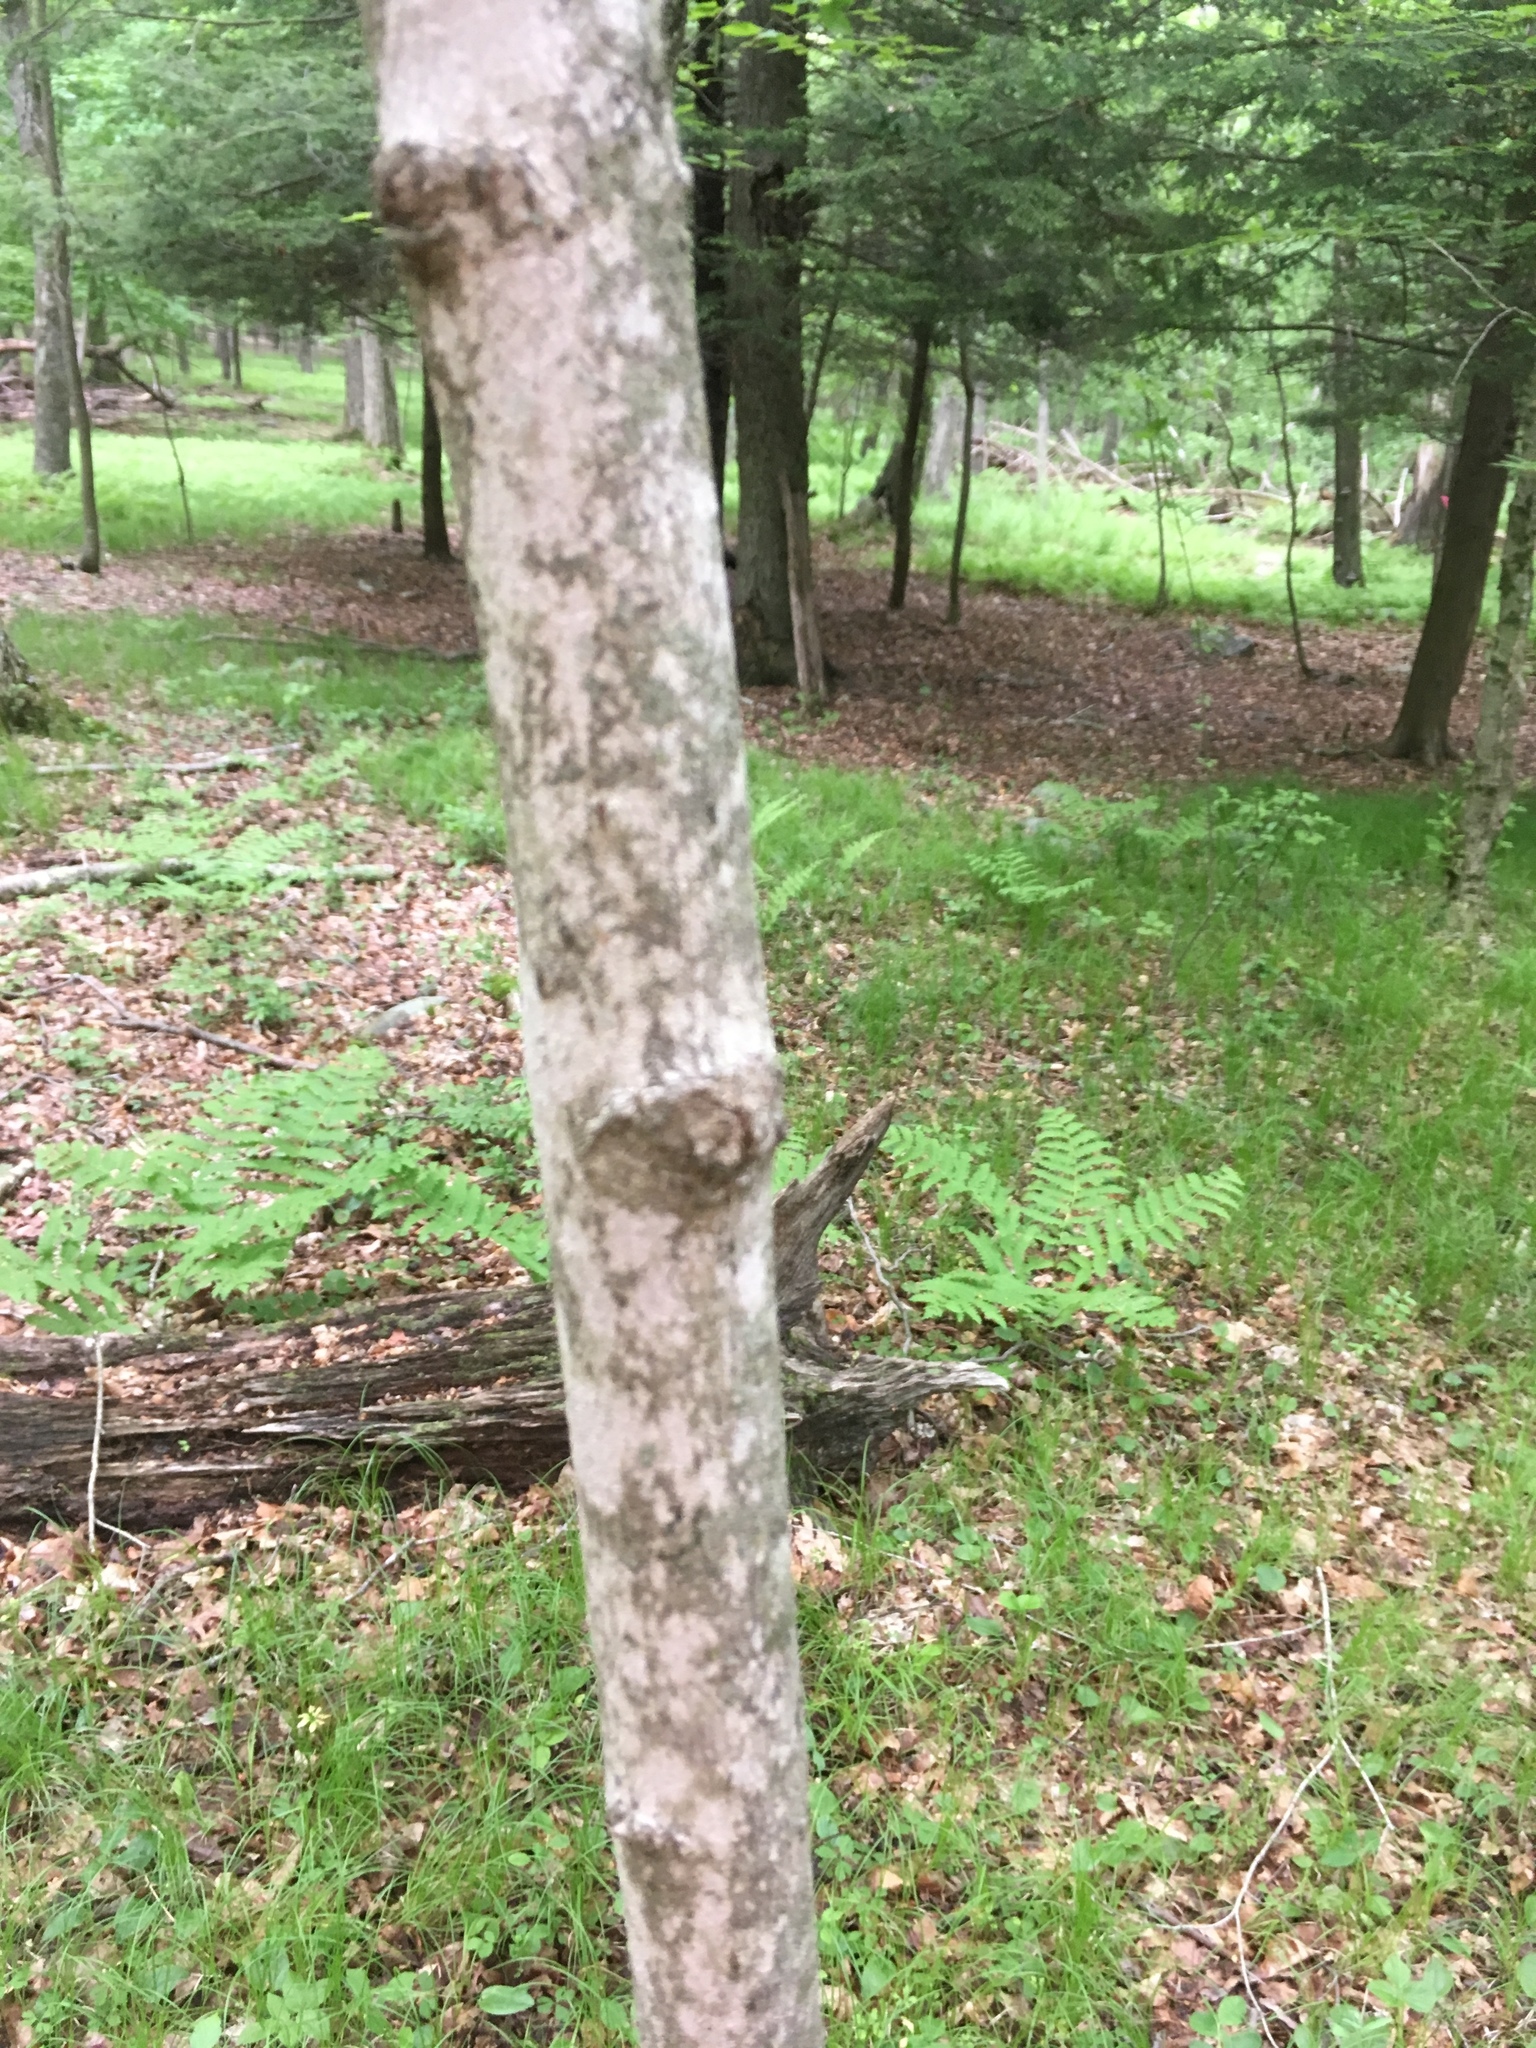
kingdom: Plantae
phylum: Tracheophyta
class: Magnoliopsida
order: Sapindales
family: Sapindaceae
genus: Acer
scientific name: Acer saccharum
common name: Sugar maple
